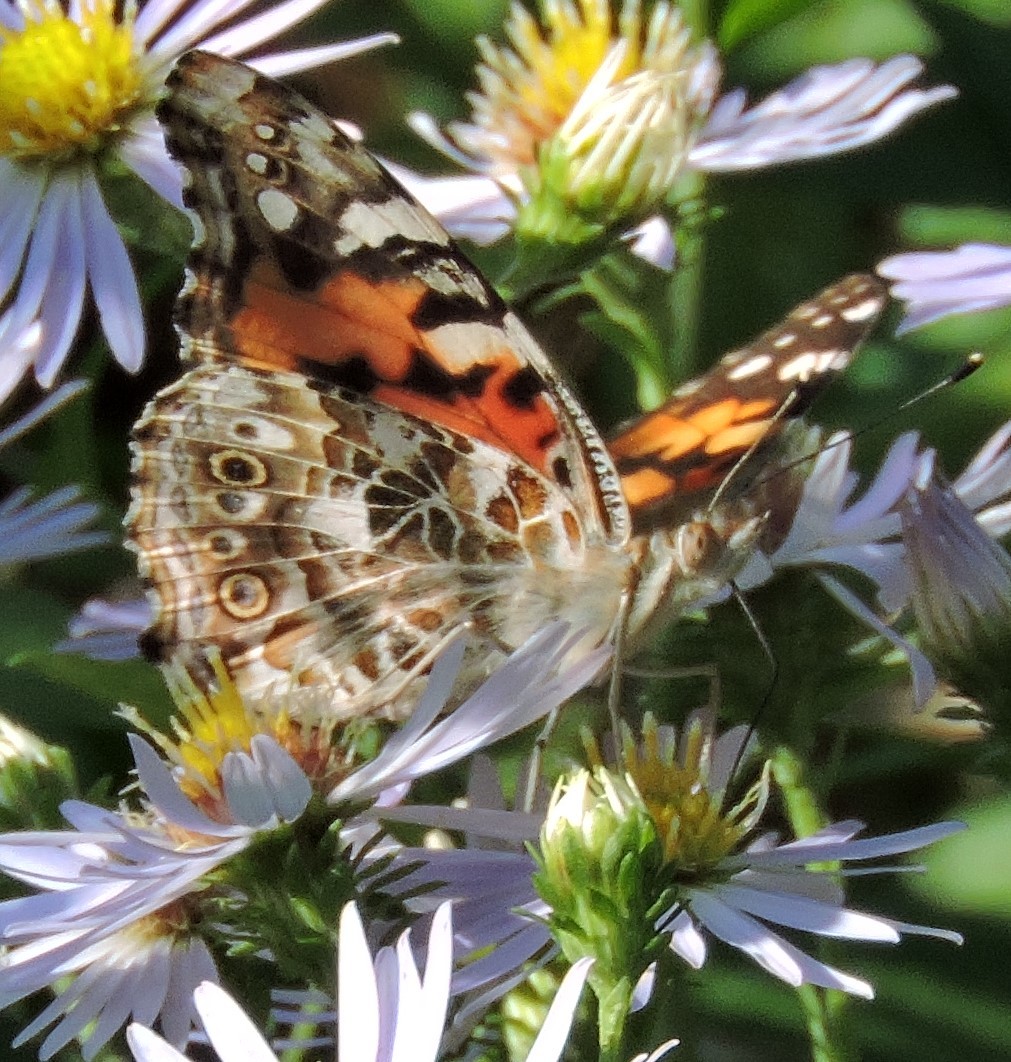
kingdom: Animalia
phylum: Arthropoda
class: Insecta
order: Lepidoptera
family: Nymphalidae
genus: Vanessa
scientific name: Vanessa cardui
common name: Painted lady
